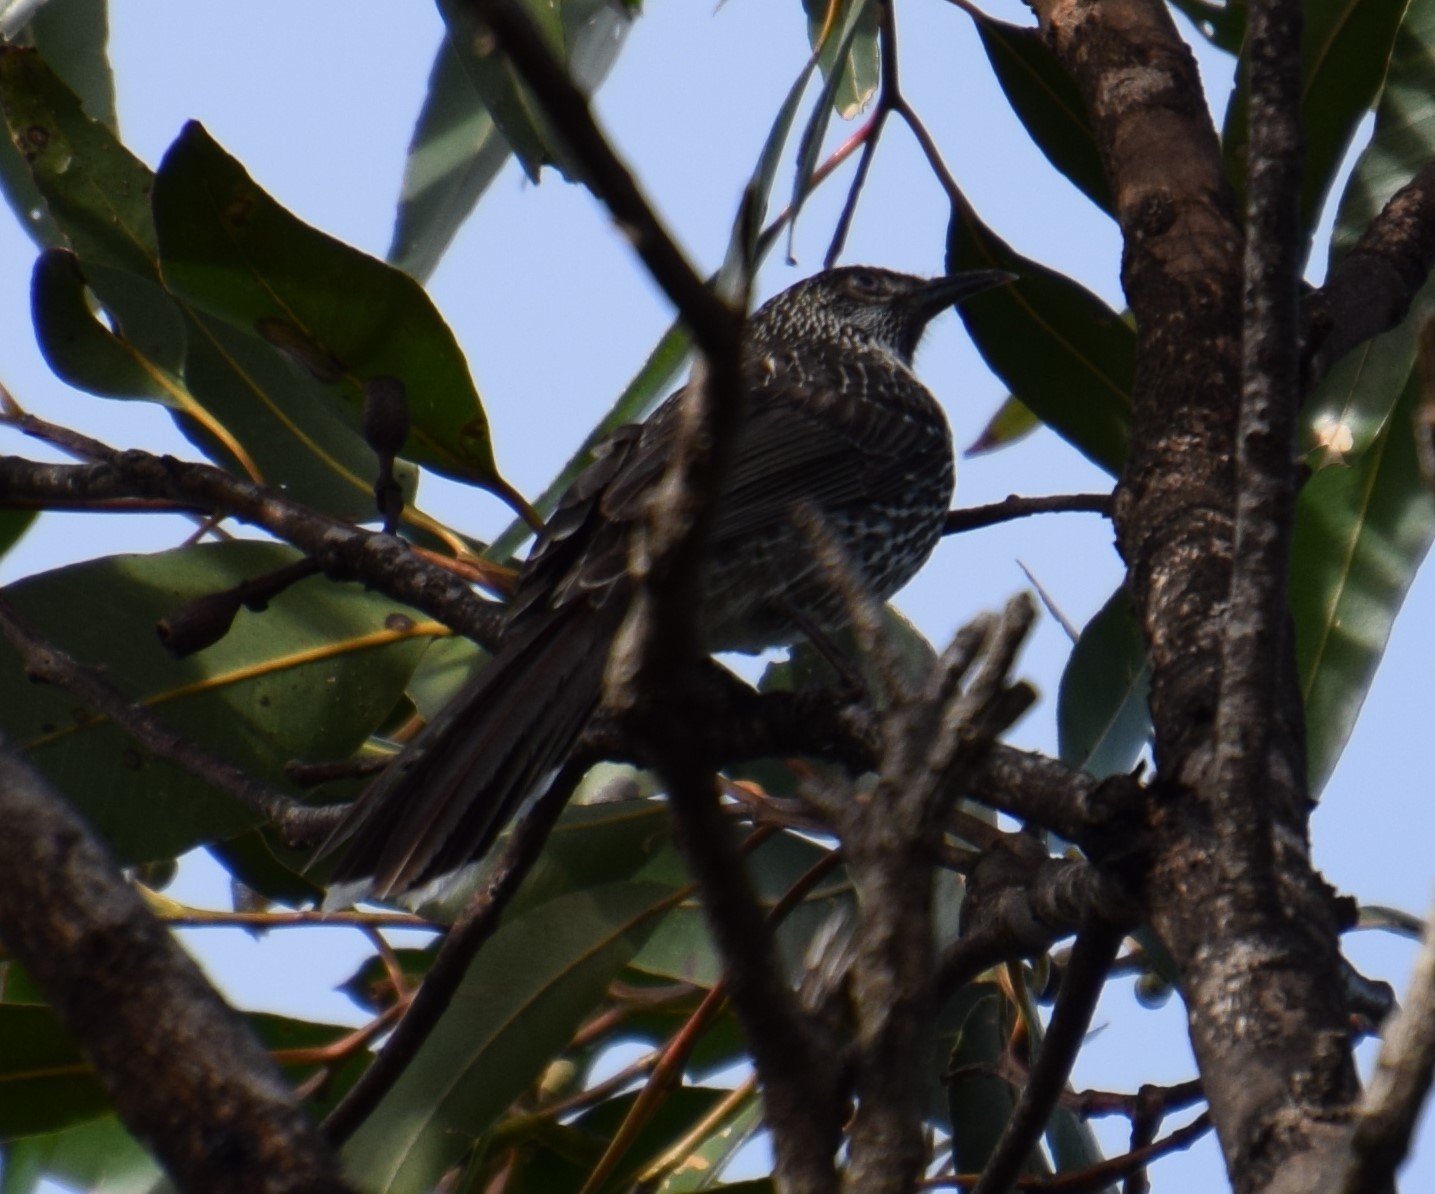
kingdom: Animalia
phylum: Chordata
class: Aves
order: Passeriformes
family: Meliphagidae
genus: Anthochaera
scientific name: Anthochaera chrysoptera
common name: Little wattlebird
